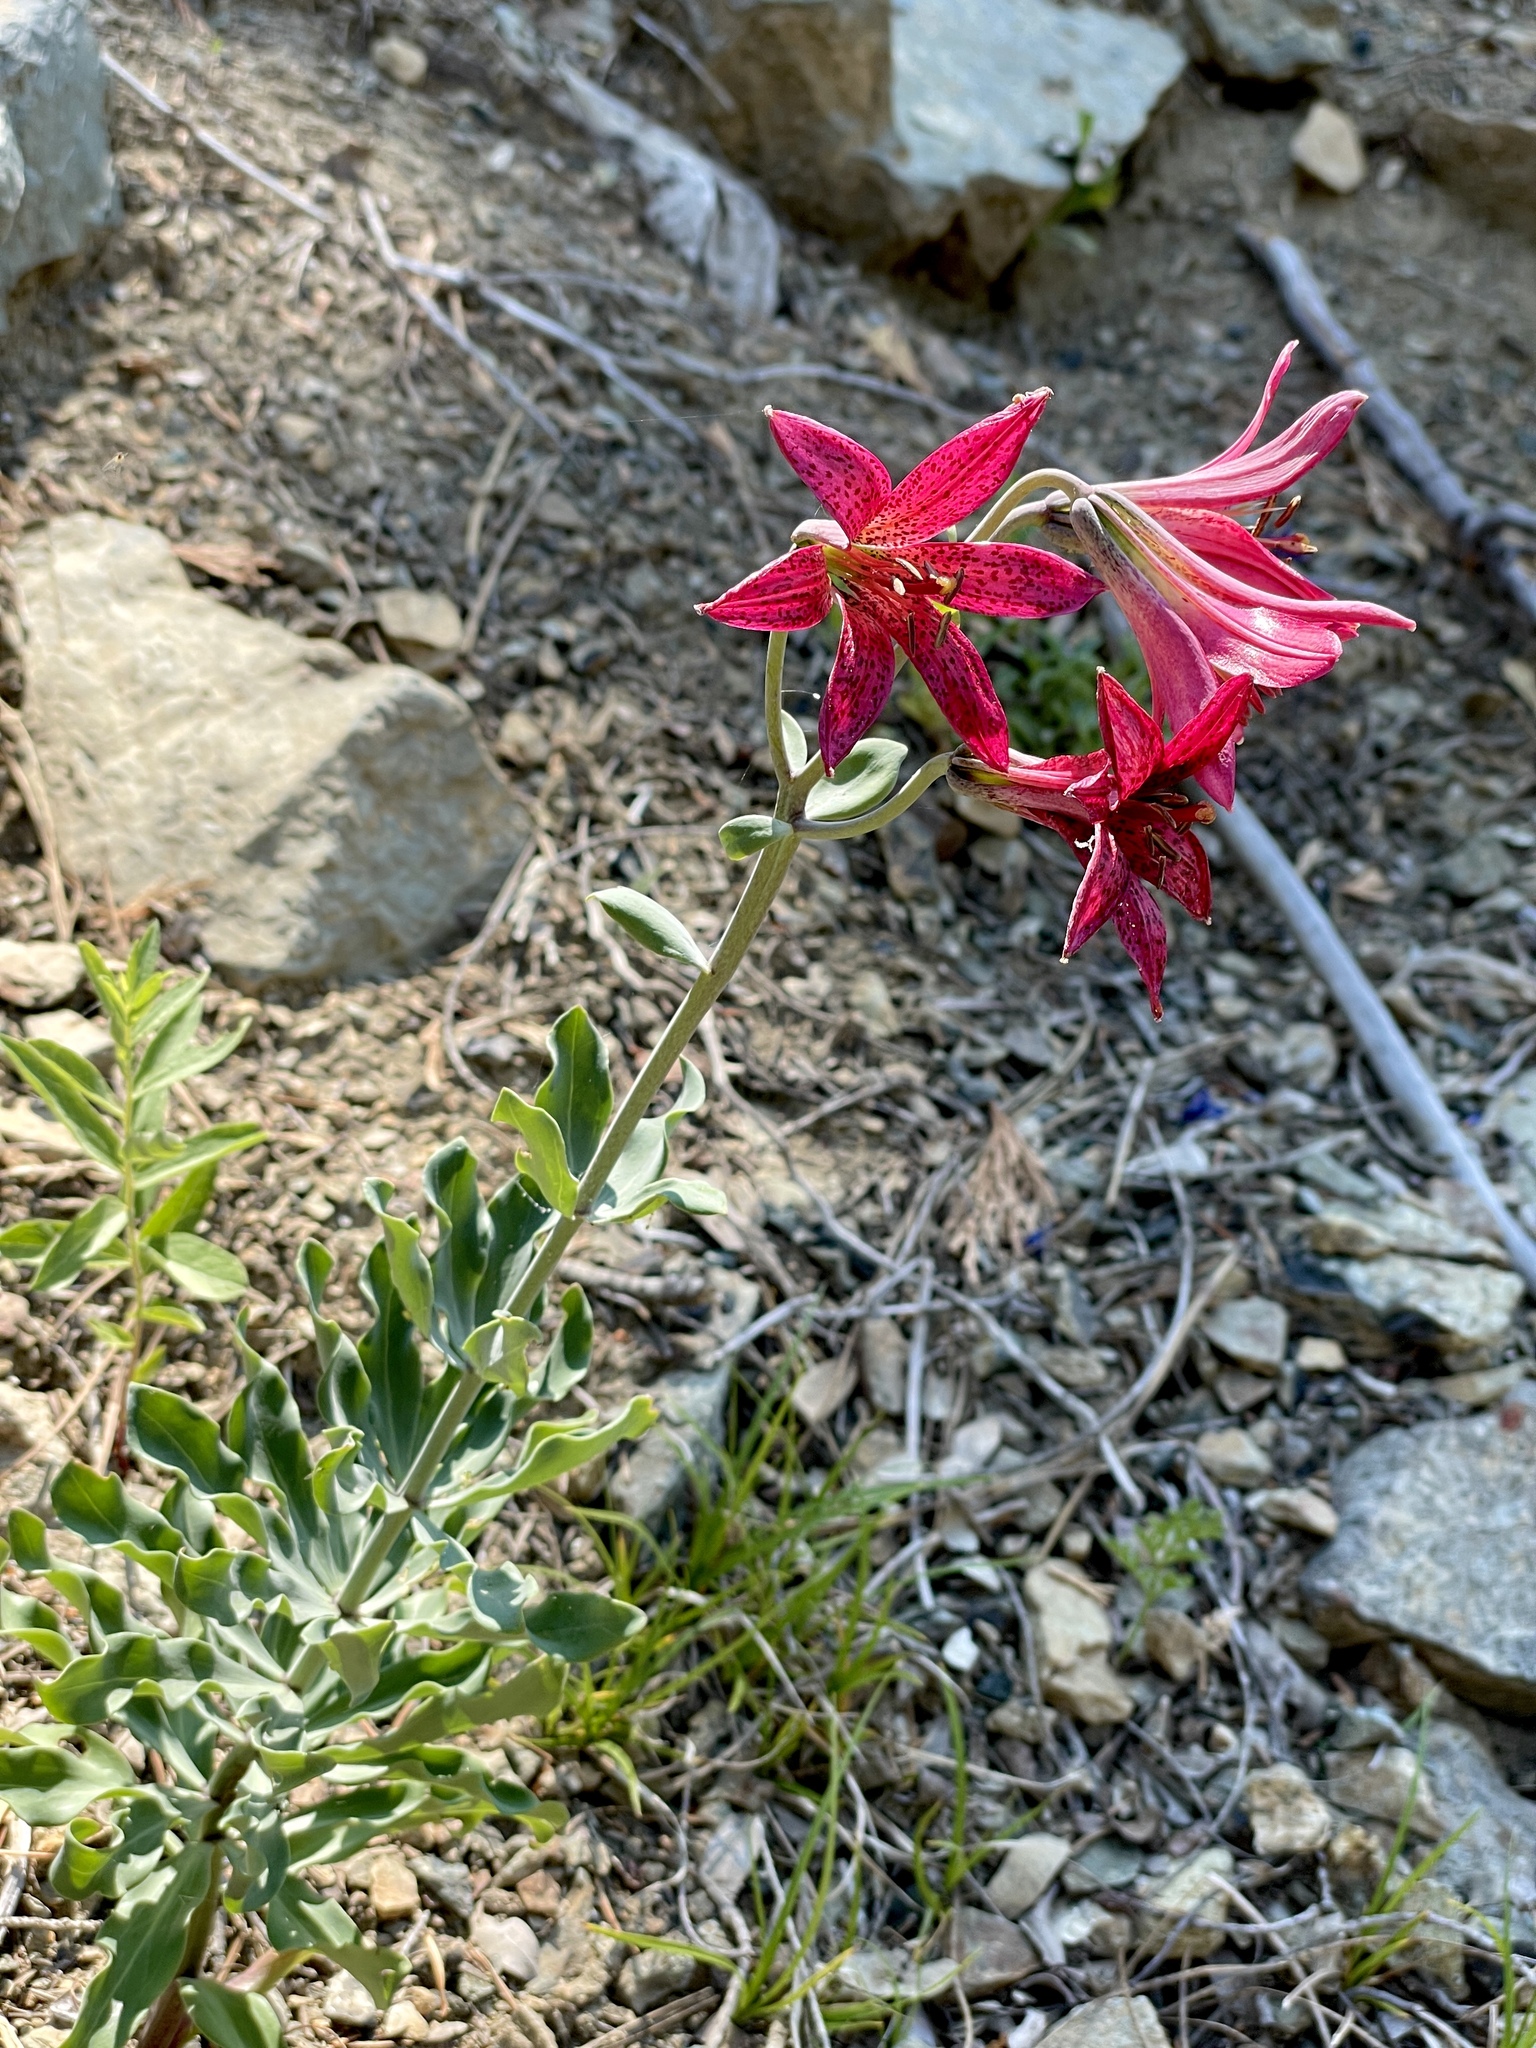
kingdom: Plantae
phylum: Tracheophyta
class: Liliopsida
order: Liliales
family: Liliaceae
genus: Lilium
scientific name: Lilium bolanderi
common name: Bolander's lily
